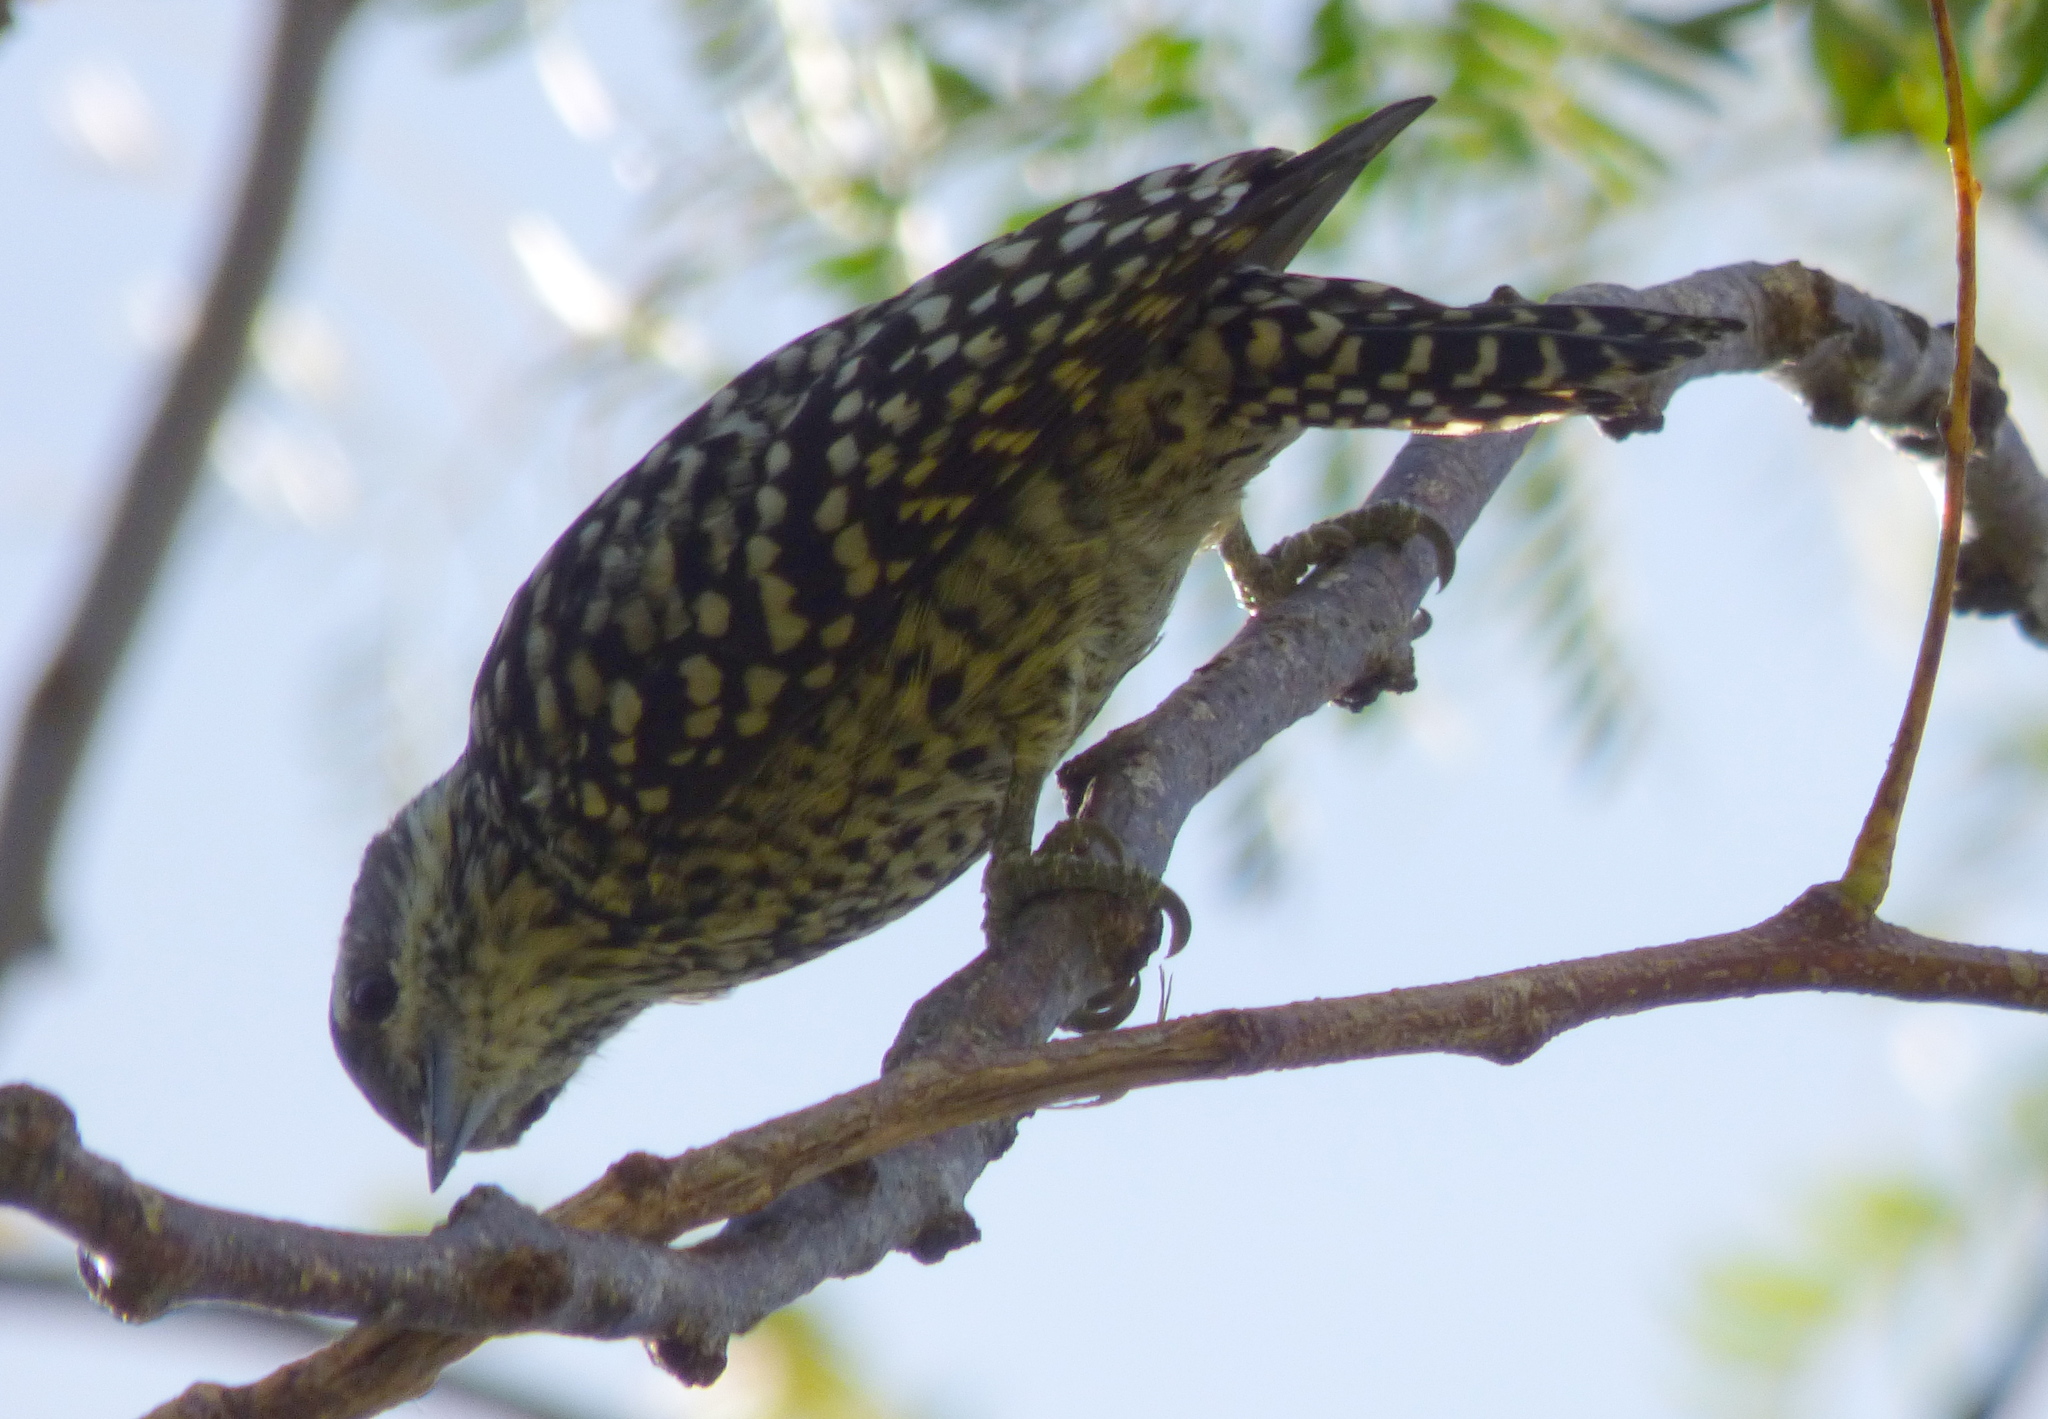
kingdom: Animalia
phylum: Chordata
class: Aves
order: Piciformes
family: Picidae
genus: Veniliornis
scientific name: Veniliornis mixtus
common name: Checkered woodpecker
